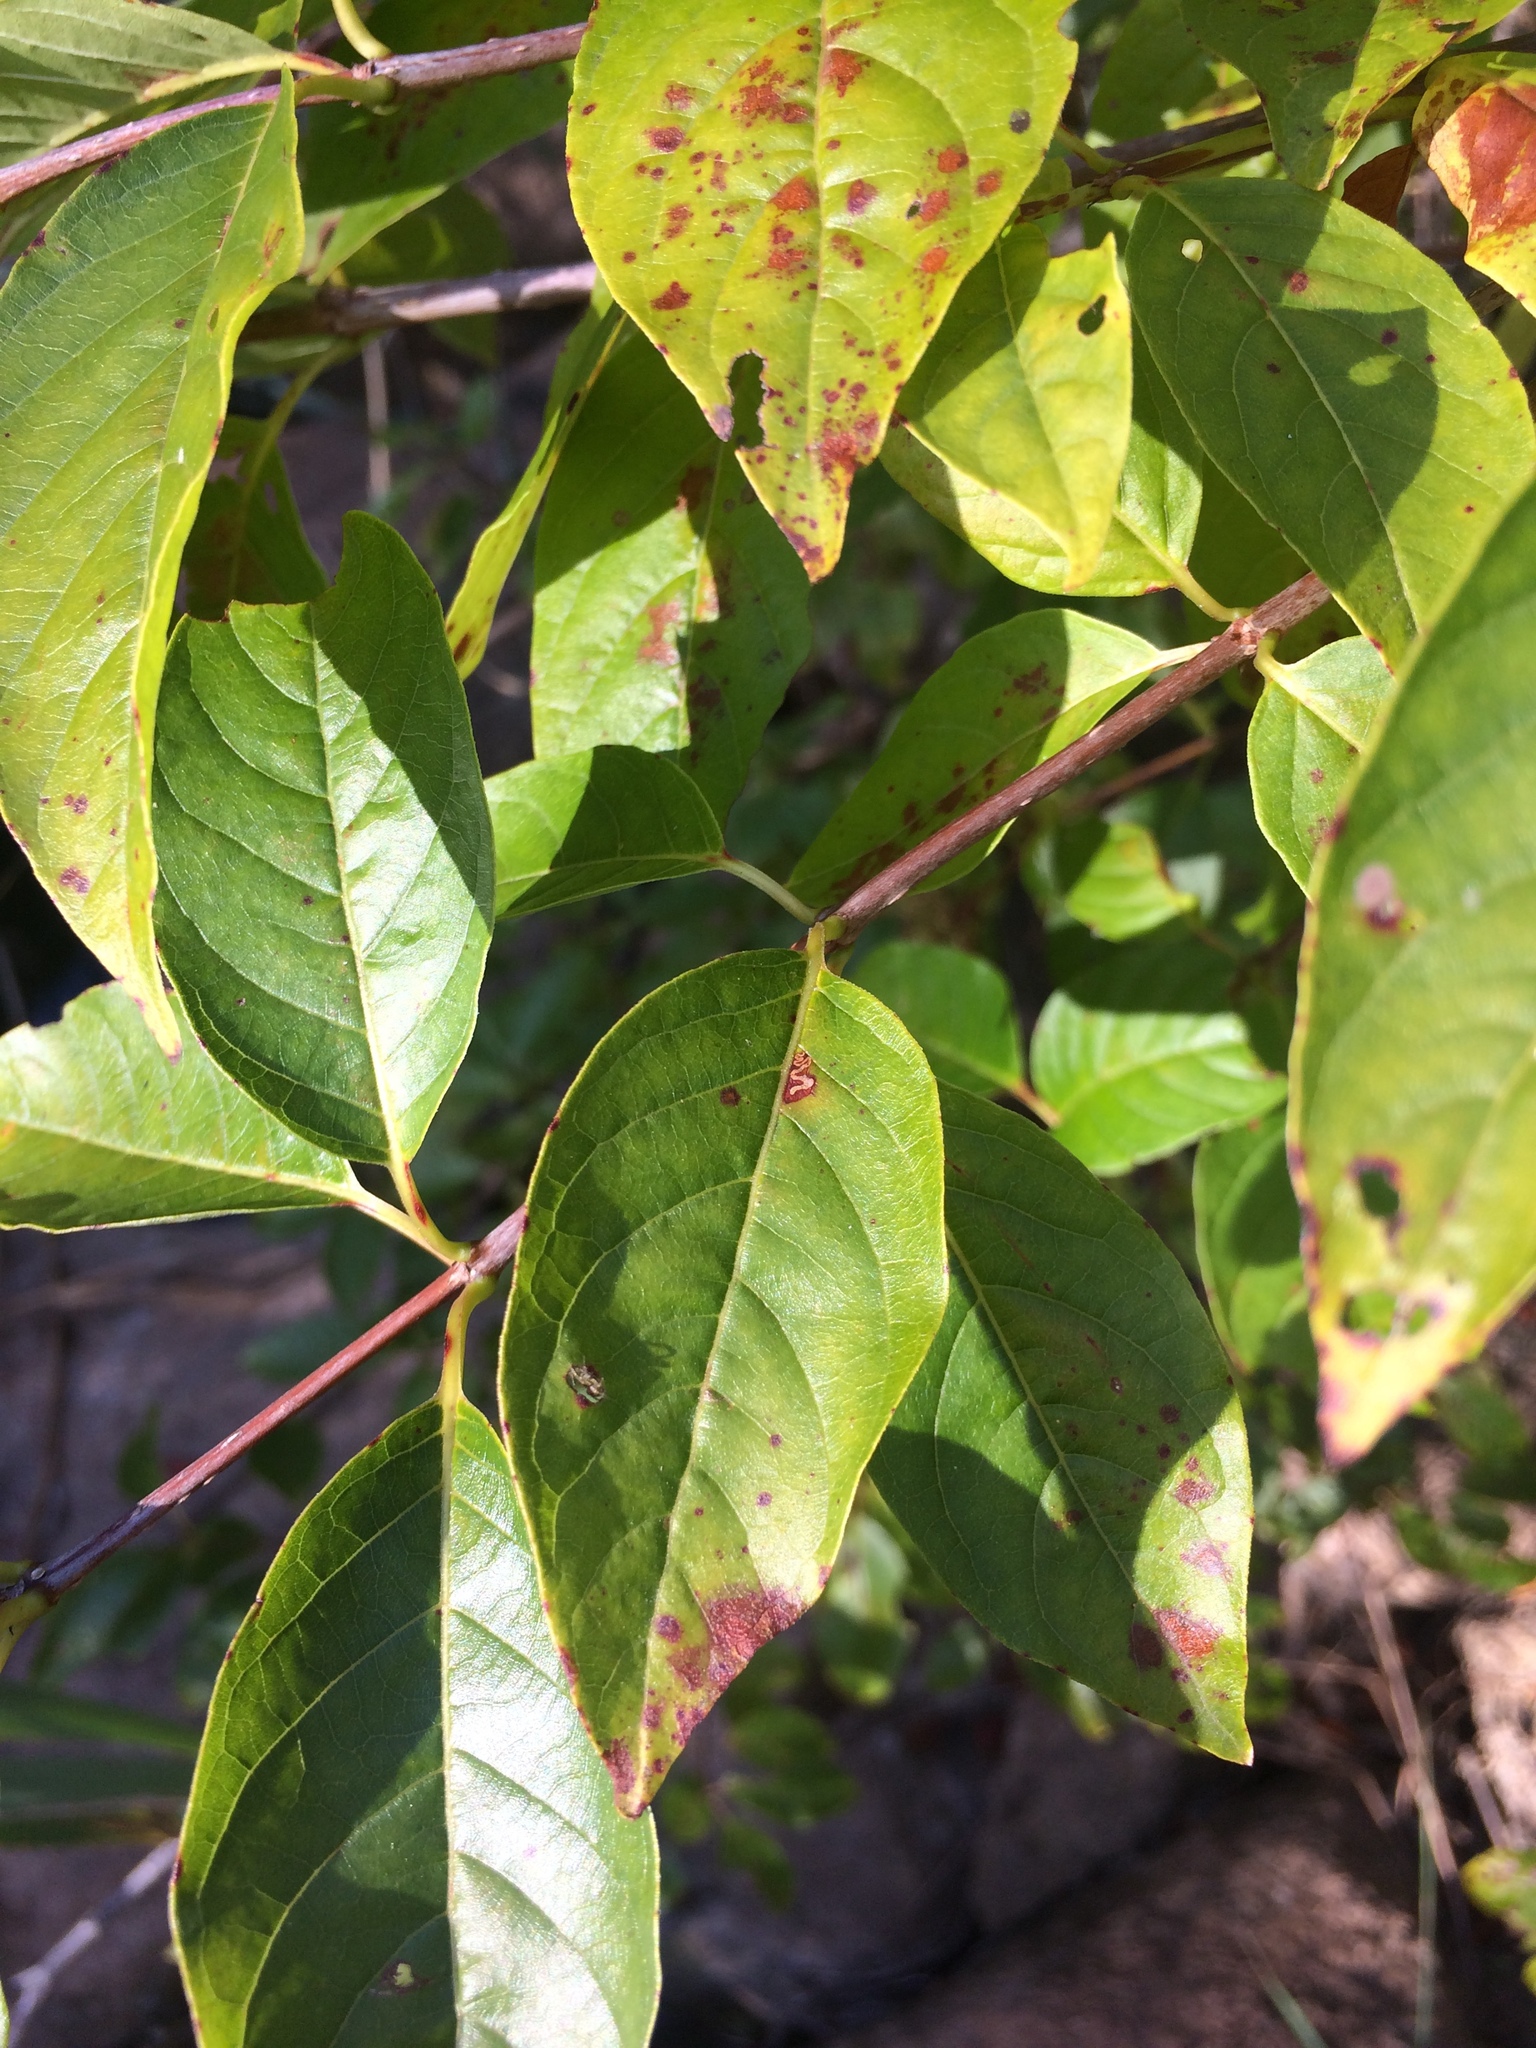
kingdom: Plantae
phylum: Tracheophyta
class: Magnoliopsida
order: Gentianales
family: Rubiaceae
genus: Cephalanthus
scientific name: Cephalanthus occidentalis
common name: Button-willow
